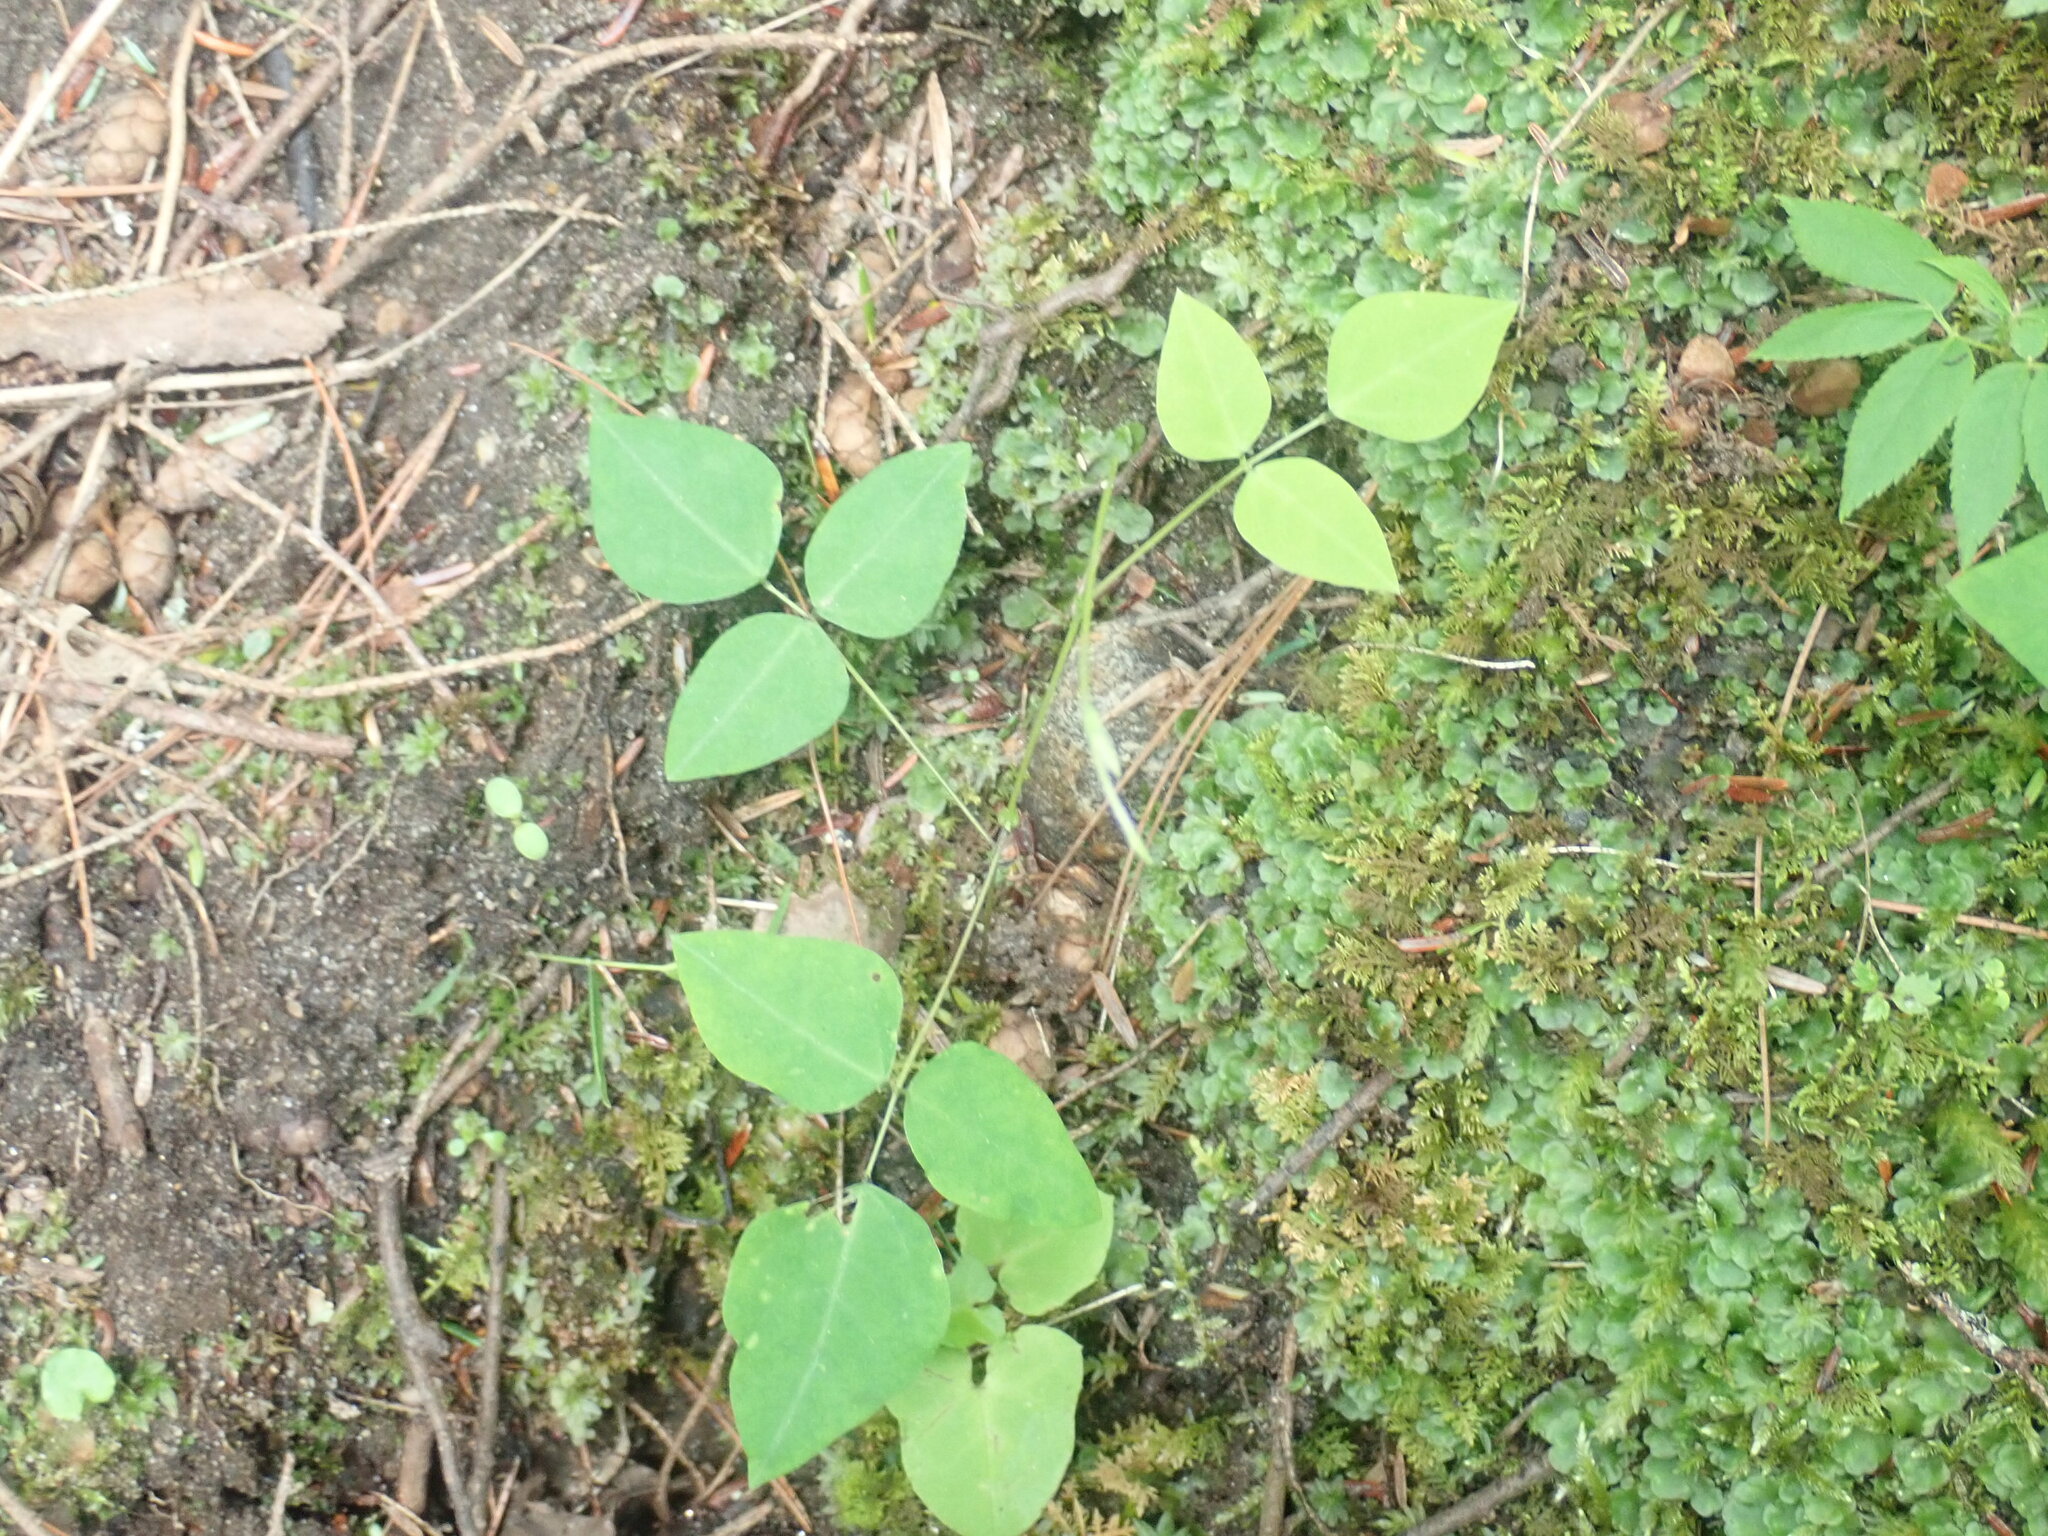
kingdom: Plantae
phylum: Tracheophyta
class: Magnoliopsida
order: Fabales
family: Fabaceae
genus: Amphicarpaea
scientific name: Amphicarpaea bracteata
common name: American hog peanut
